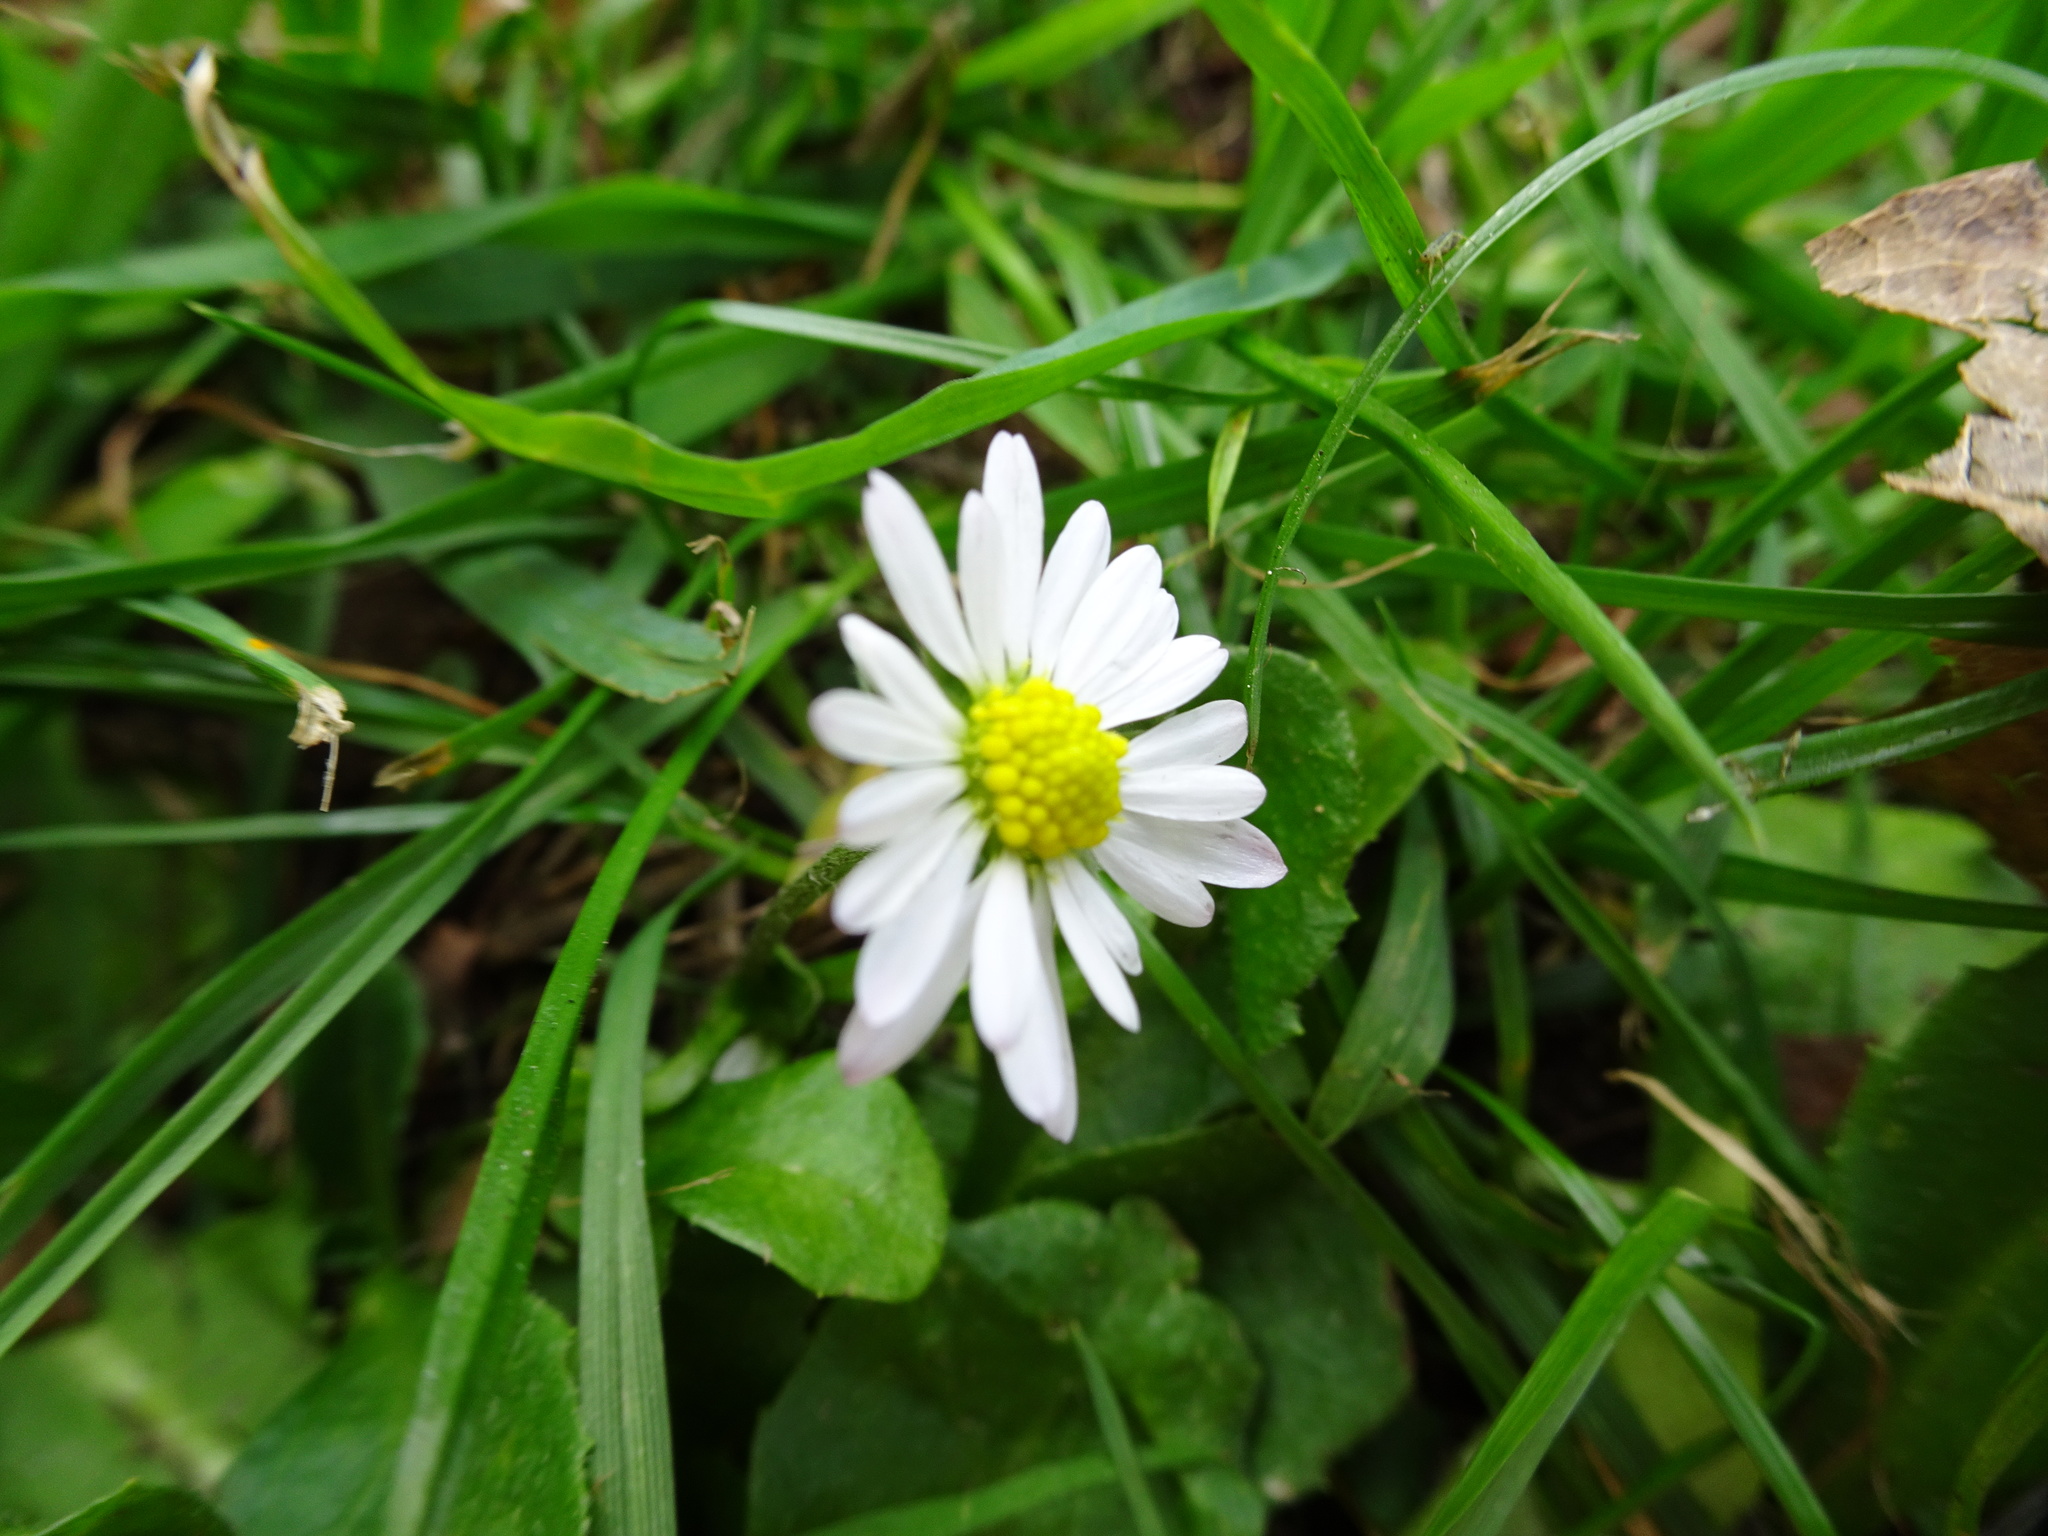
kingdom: Plantae
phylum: Tracheophyta
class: Magnoliopsida
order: Asterales
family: Asteraceae
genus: Bellis
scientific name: Bellis perennis
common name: Lawndaisy
